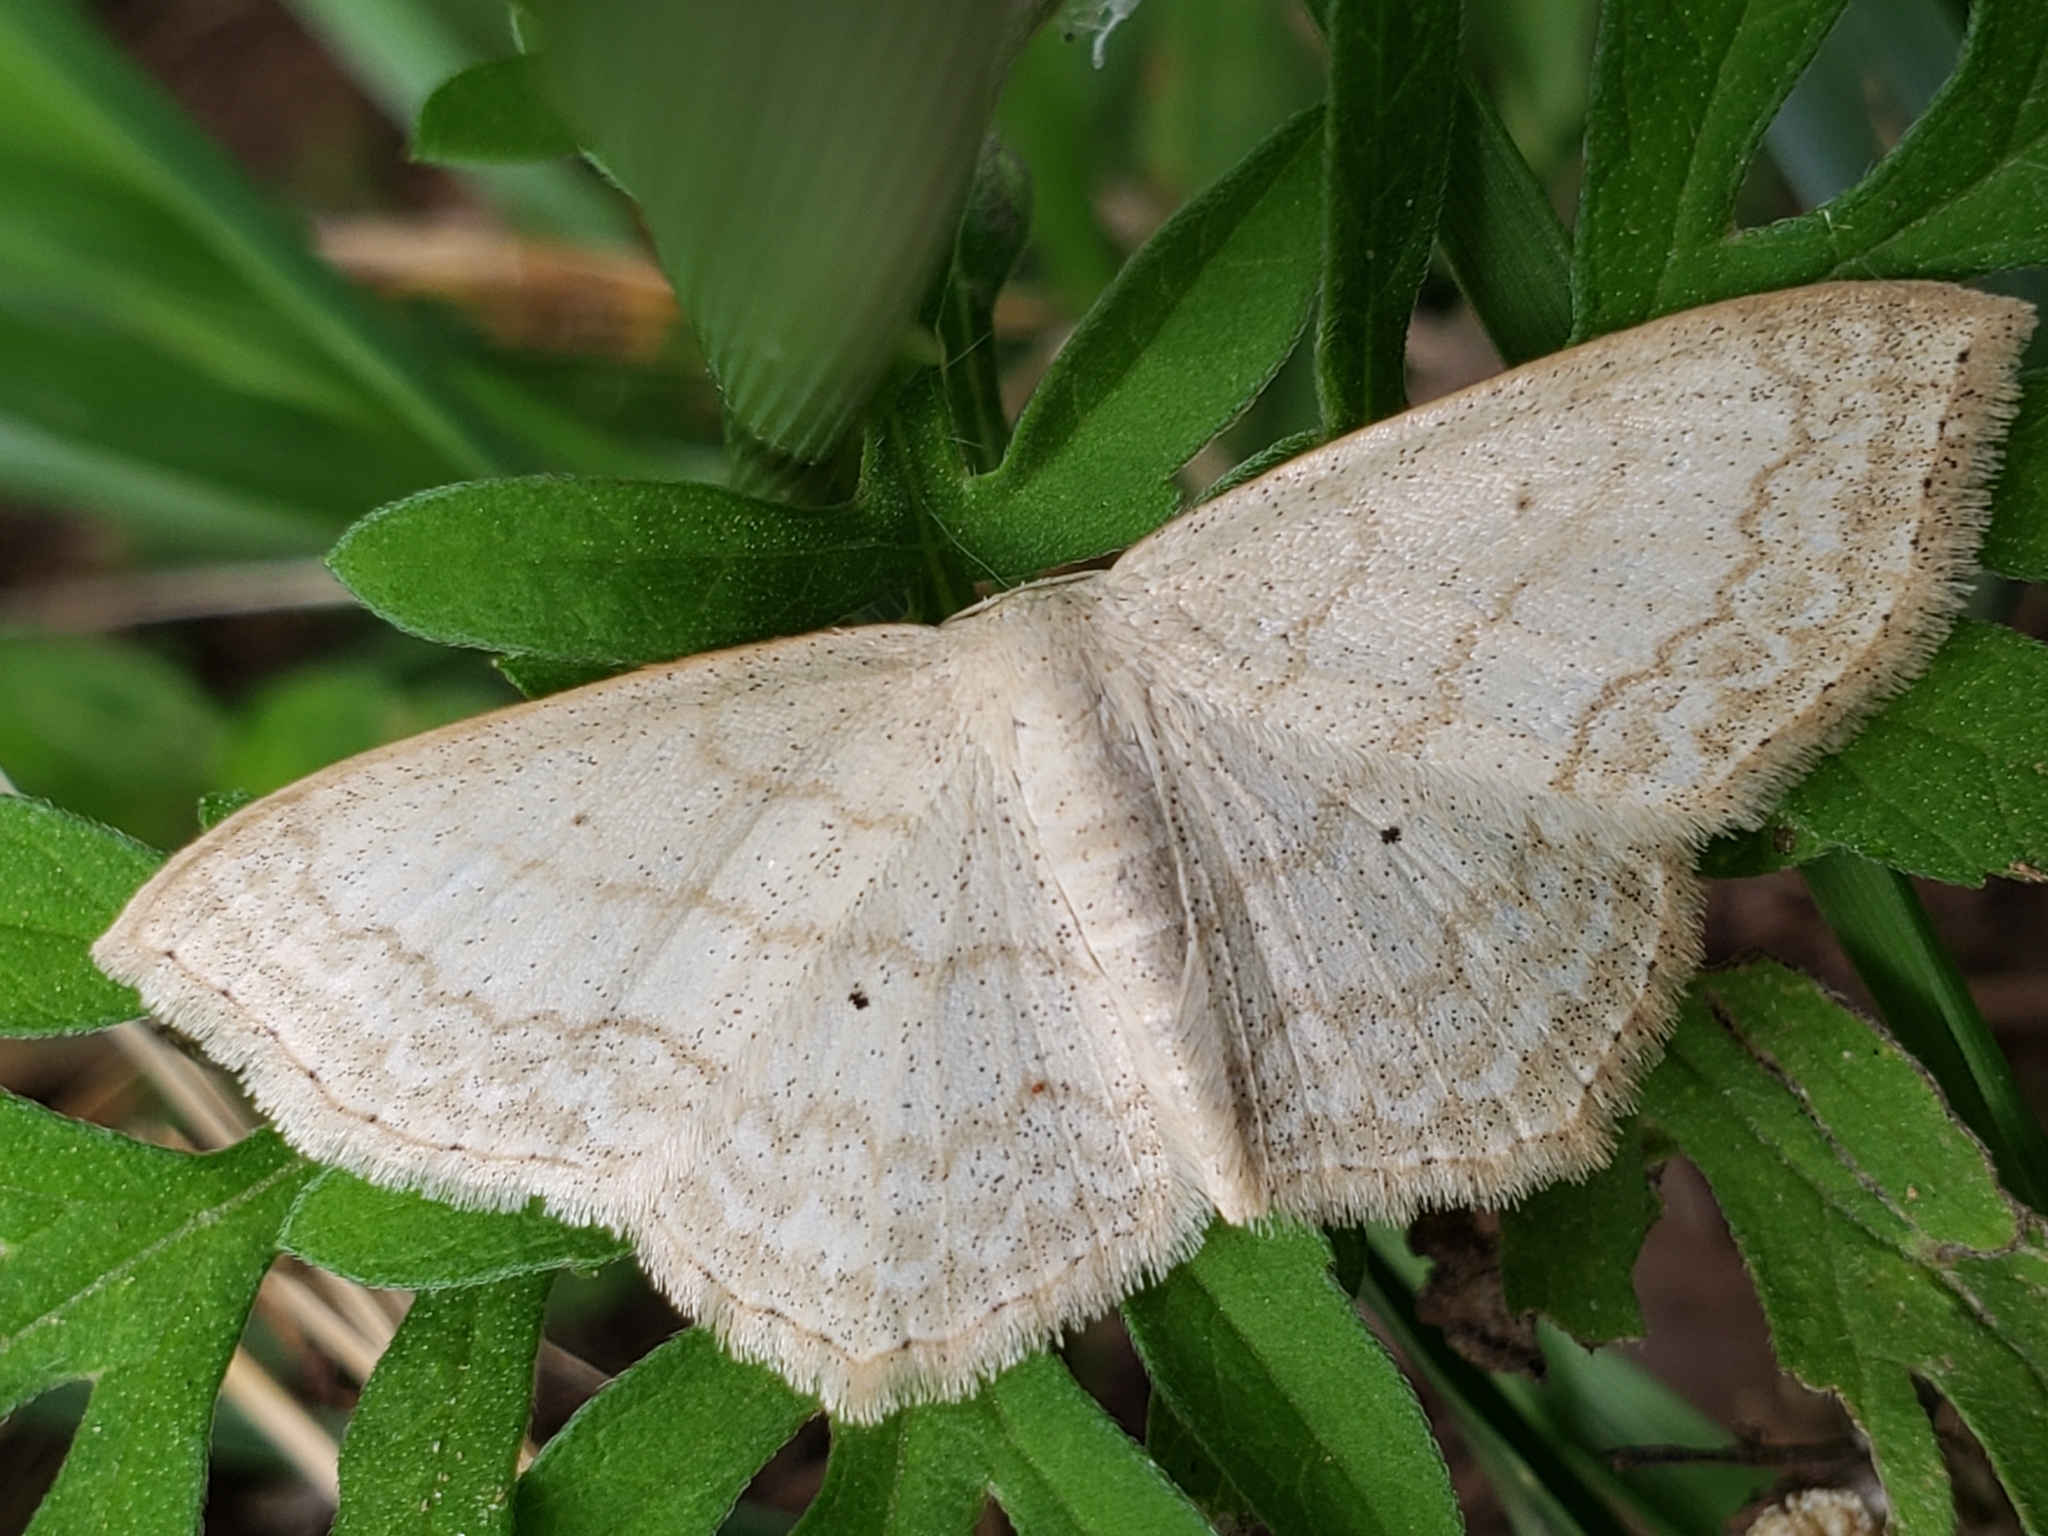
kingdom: Animalia
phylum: Arthropoda
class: Insecta
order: Lepidoptera
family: Geometridae
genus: Scopula
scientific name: Scopula limboundata
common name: Large lace border
